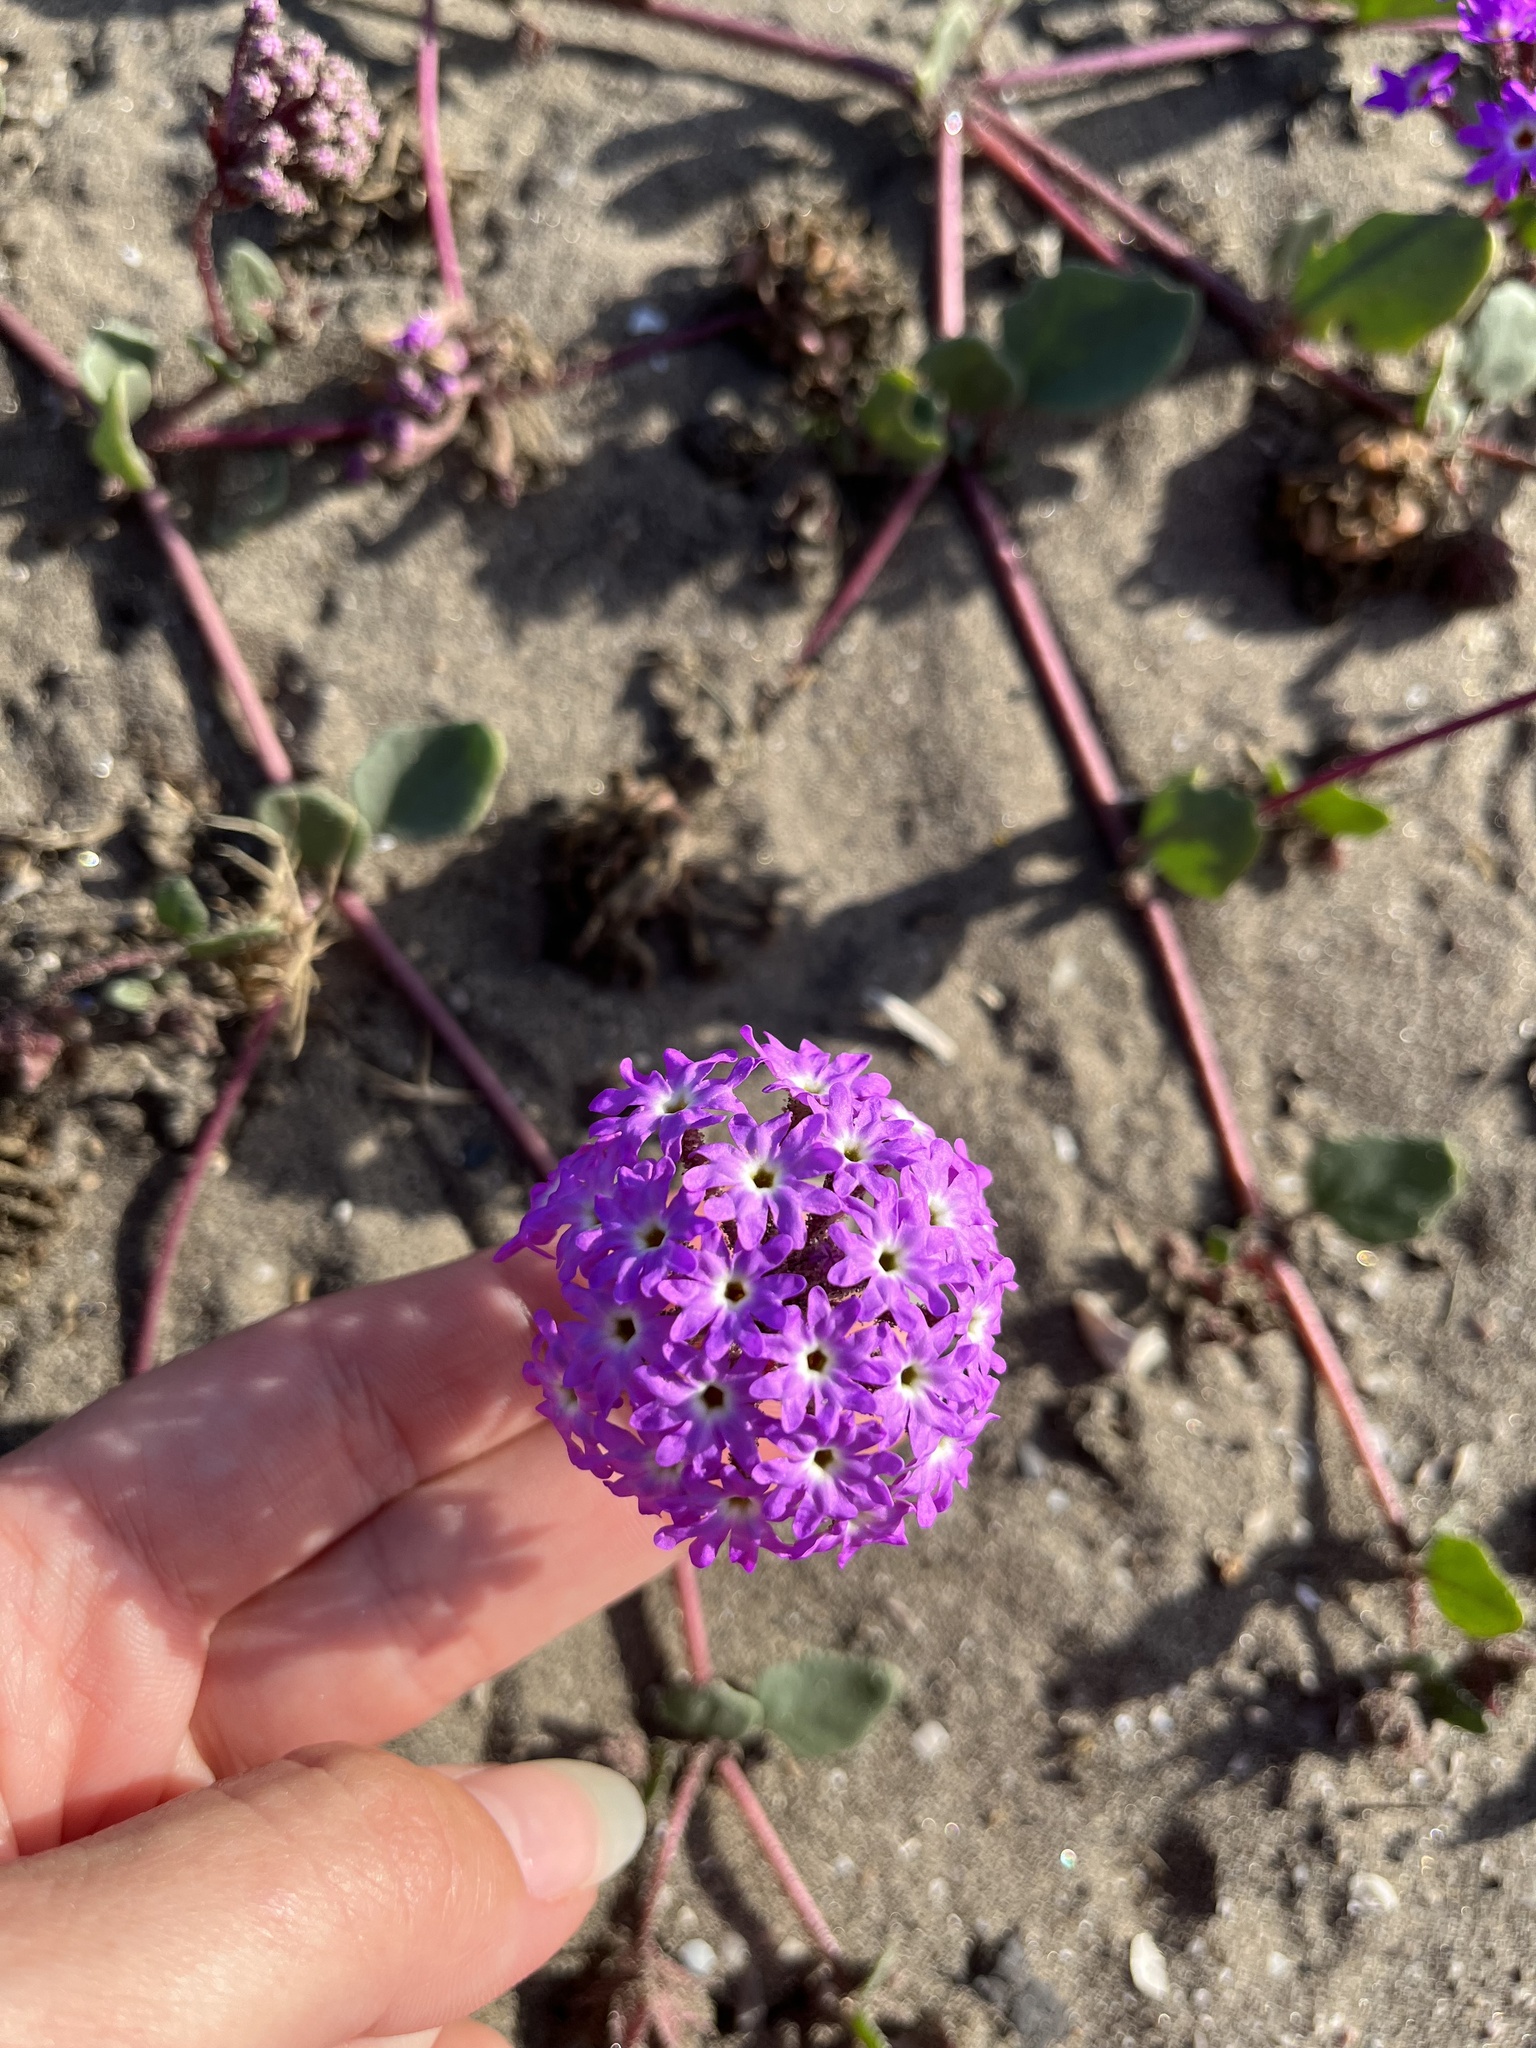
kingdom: Plantae
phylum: Tracheophyta
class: Magnoliopsida
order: Caryophyllales
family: Nyctaginaceae
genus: Abronia
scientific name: Abronia umbellata
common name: Sand-verbena
